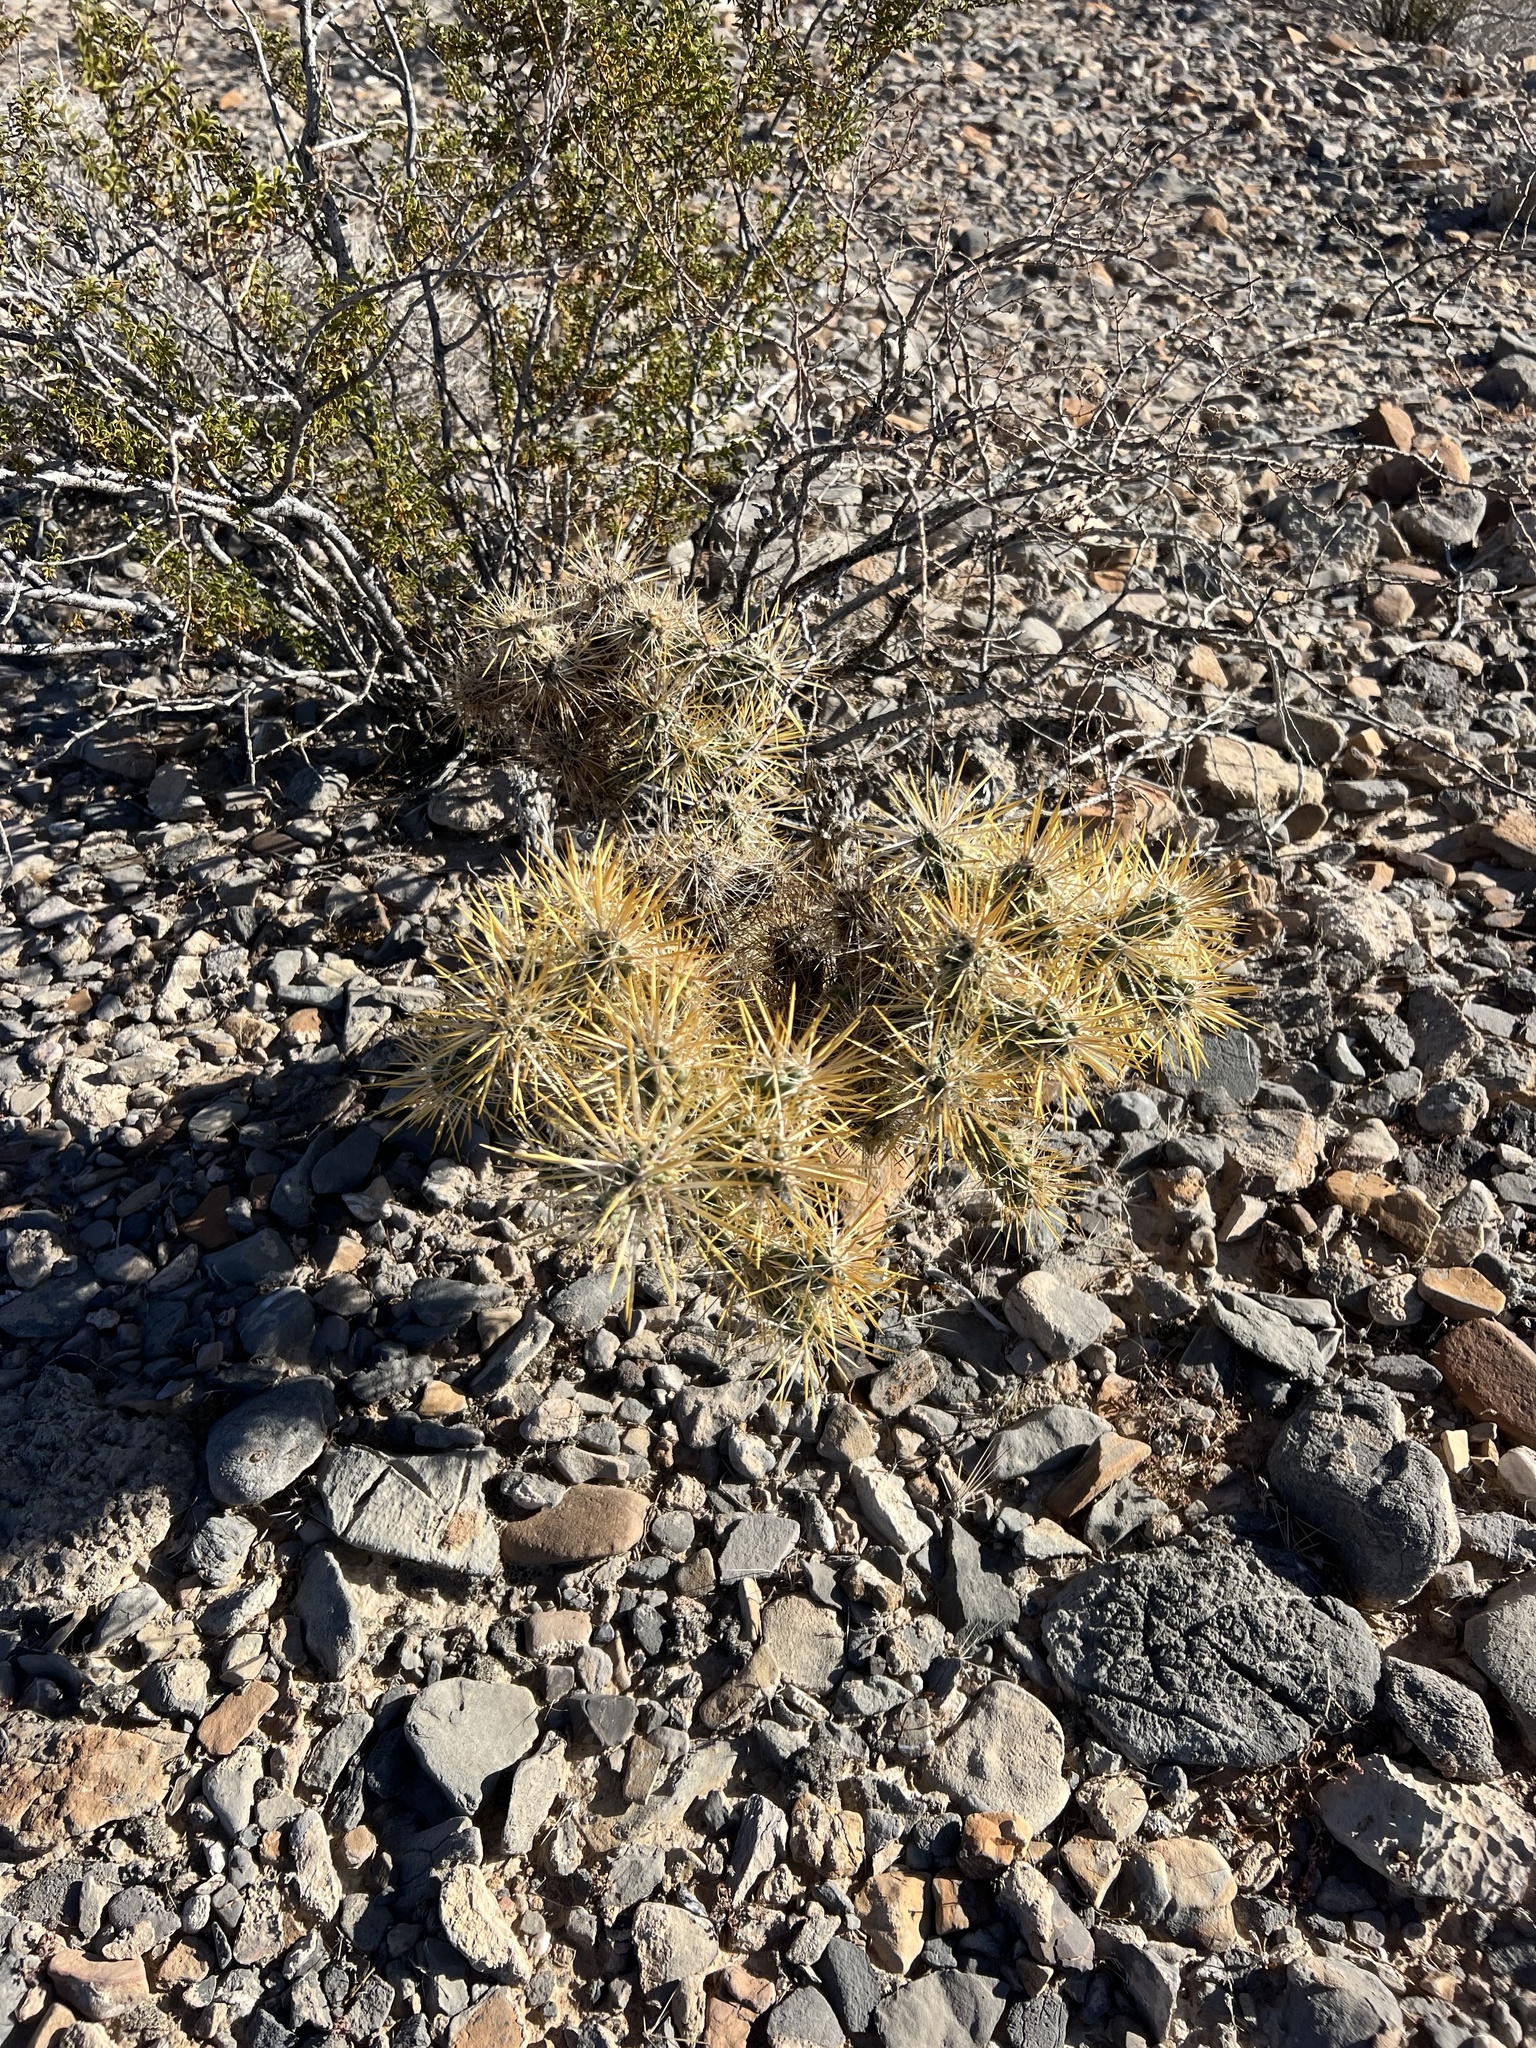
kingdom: Plantae
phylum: Tracheophyta
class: Magnoliopsida
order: Caryophyllales
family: Cactaceae
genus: Cylindropuntia
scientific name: Cylindropuntia echinocarpa
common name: Ground cholla
